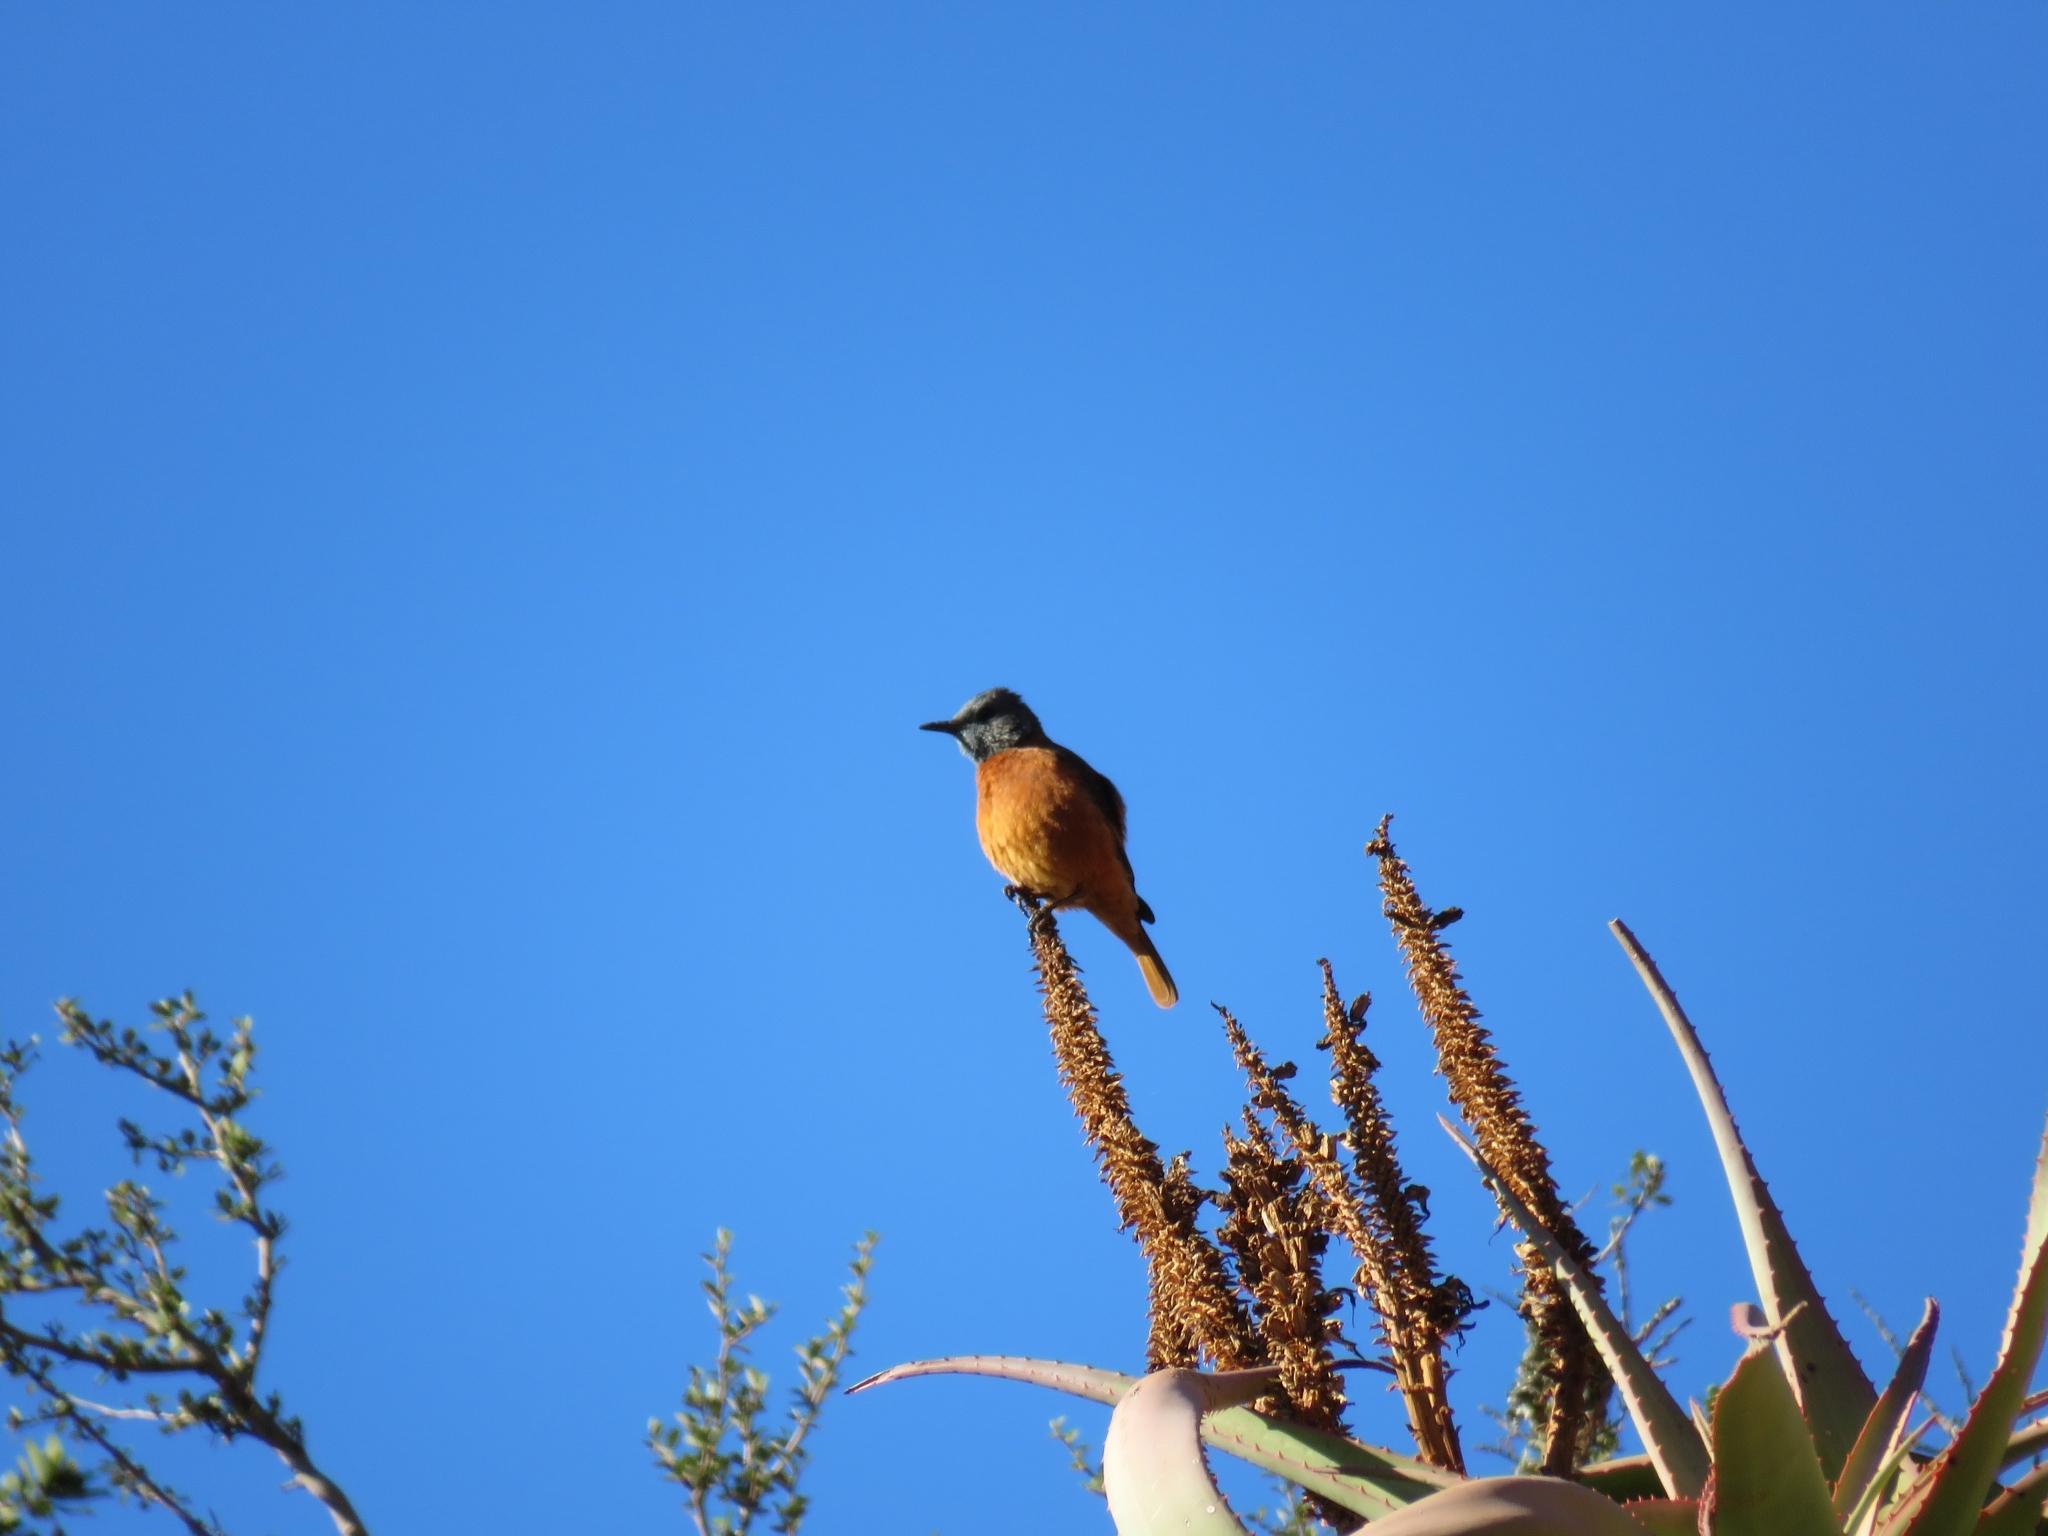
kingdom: Animalia
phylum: Chordata
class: Aves
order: Passeriformes
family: Muscicapidae
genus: Monticola
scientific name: Monticola rupestris
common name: Cape rock thrush
